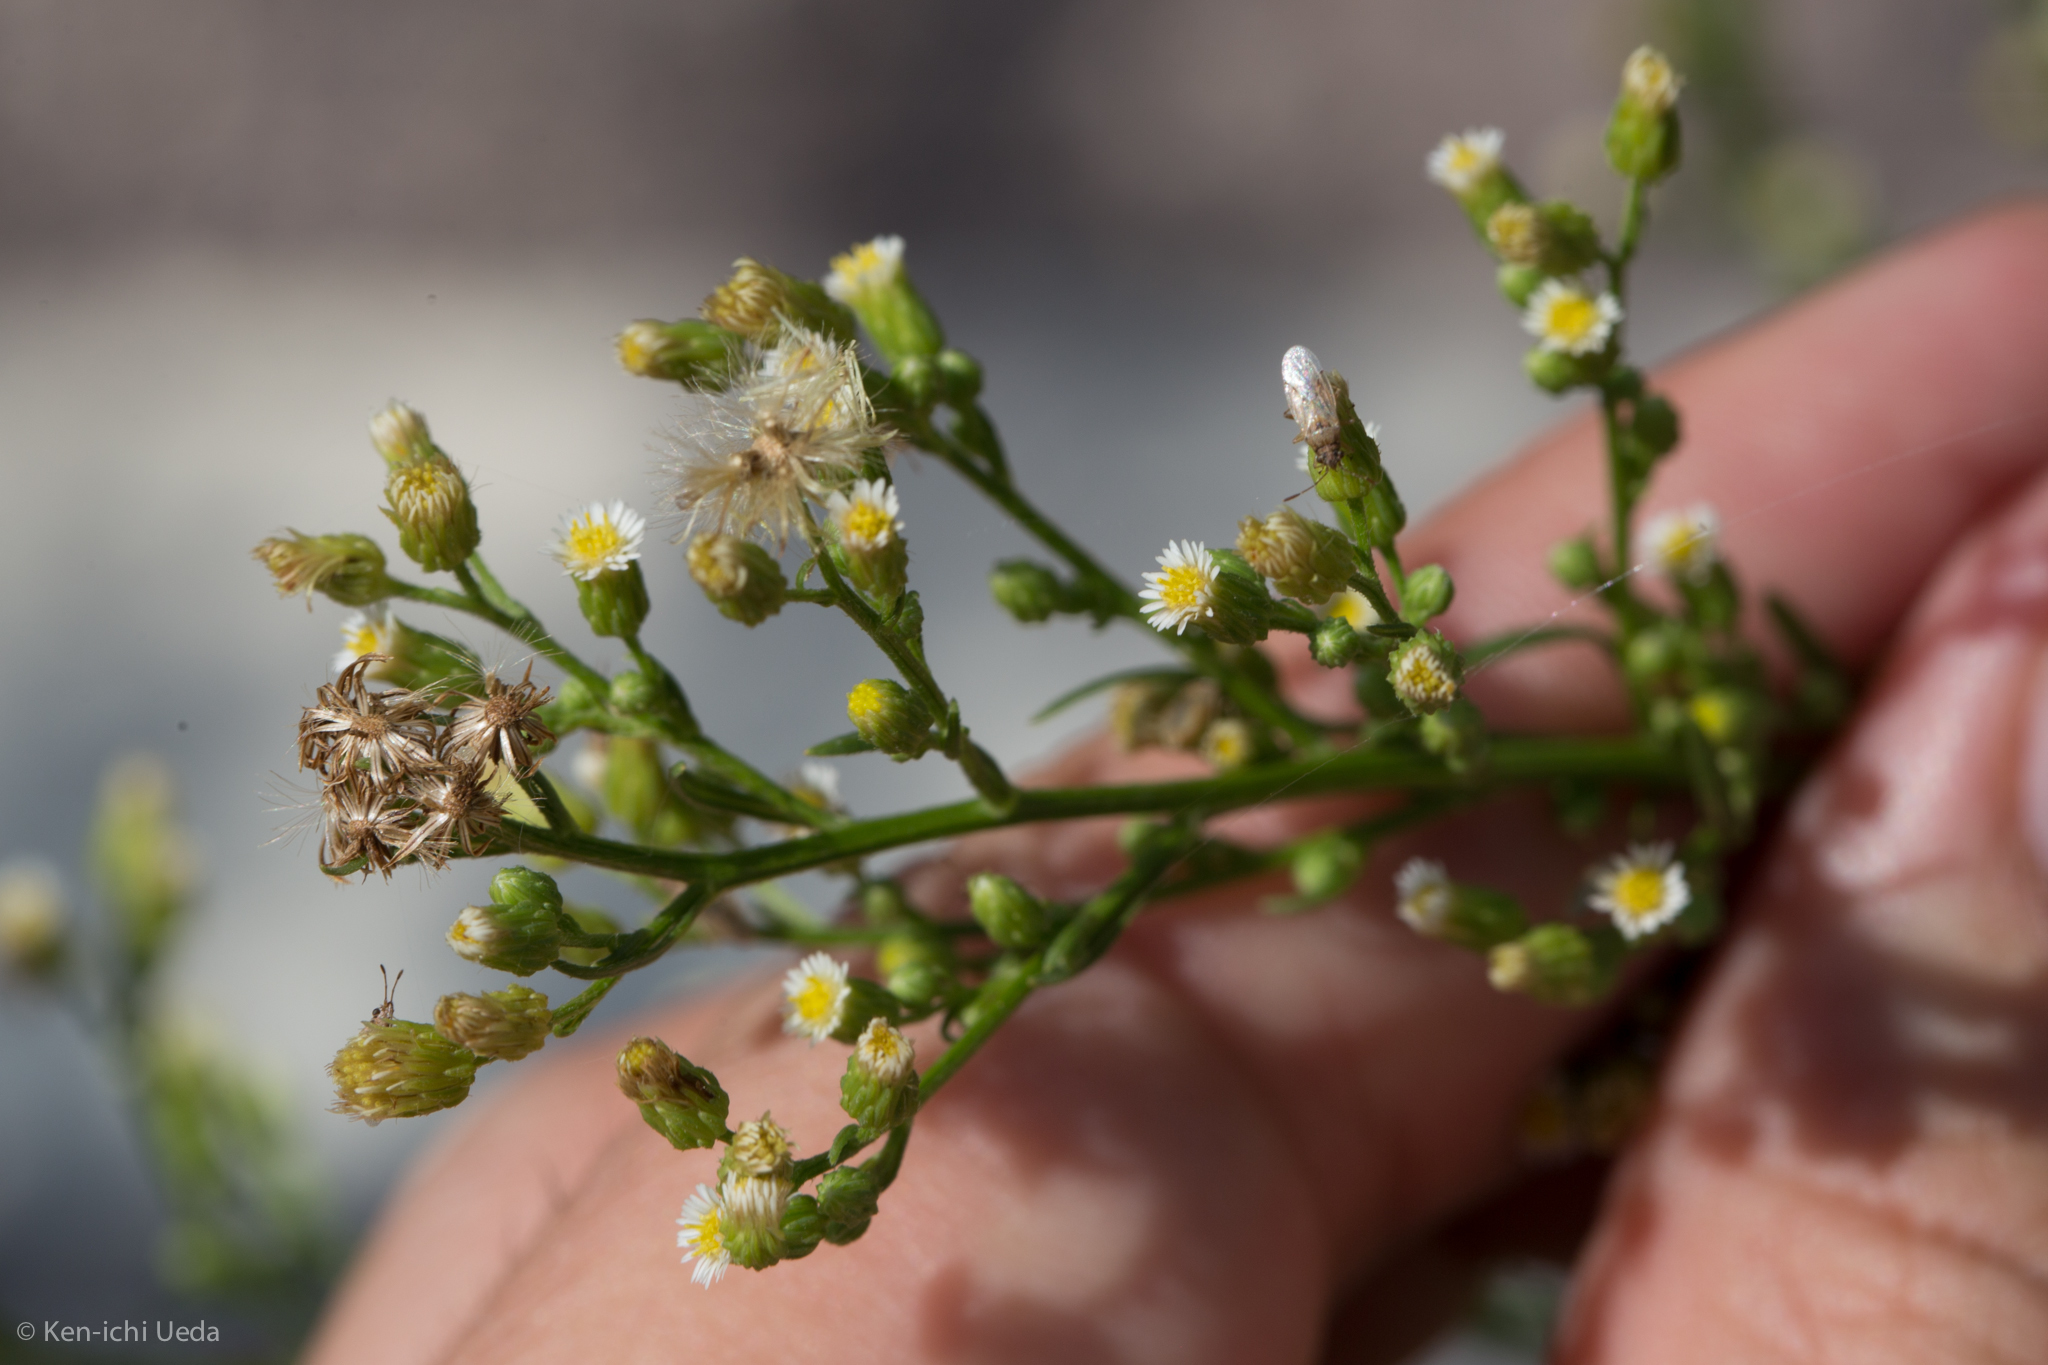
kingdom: Plantae
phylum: Tracheophyta
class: Magnoliopsida
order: Asterales
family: Asteraceae
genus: Erigeron
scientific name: Erigeron canadensis
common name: Canadian fleabane
